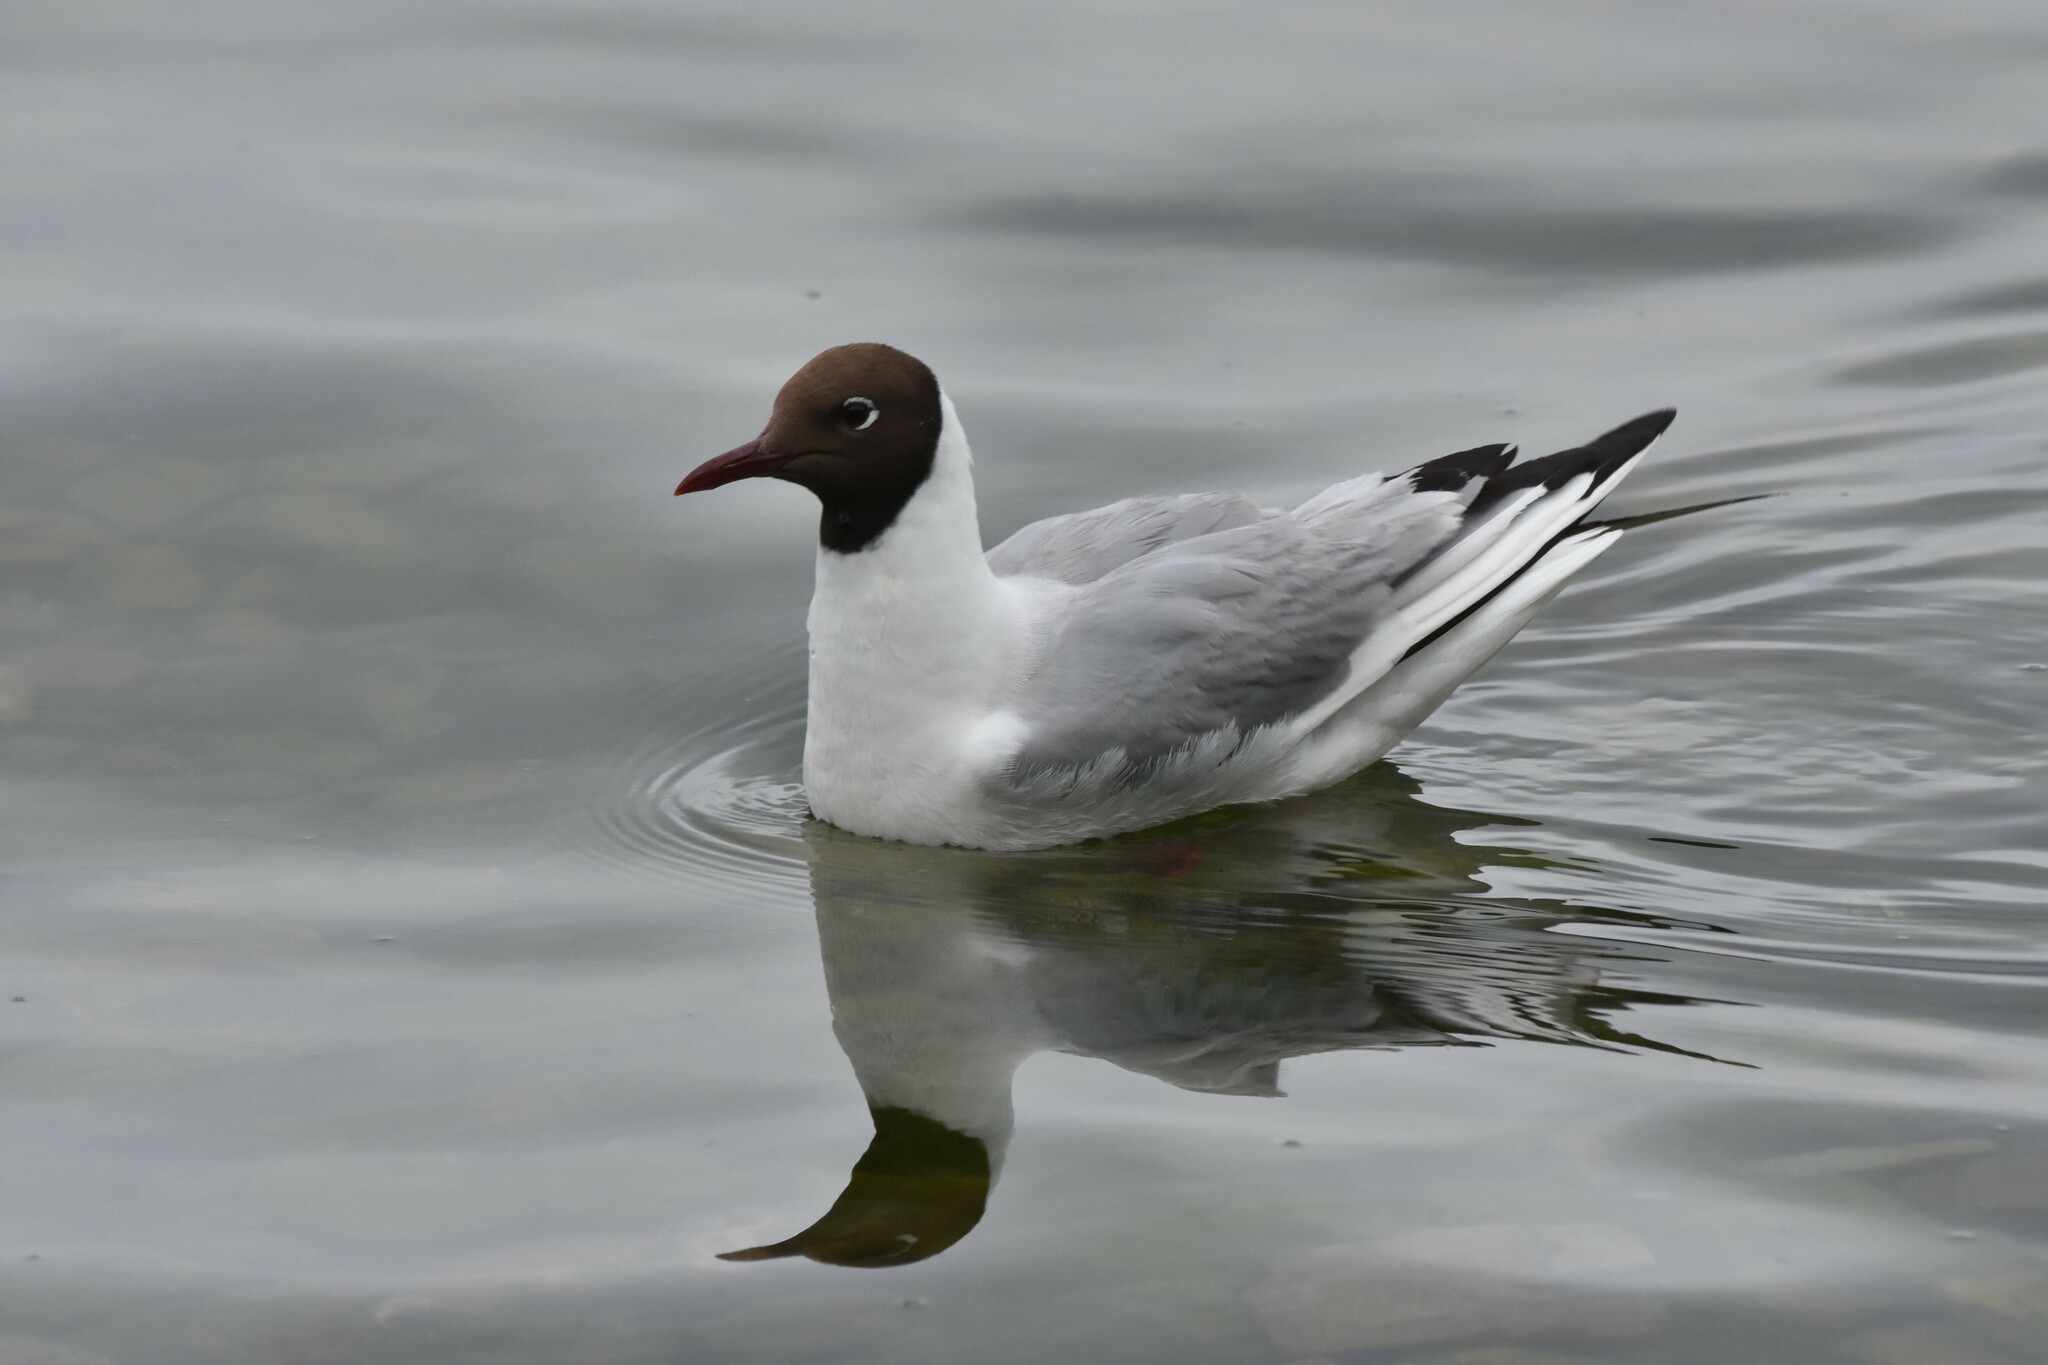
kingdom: Animalia
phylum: Chordata
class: Aves
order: Charadriiformes
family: Laridae
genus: Chroicocephalus
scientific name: Chroicocephalus ridibundus
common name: Black-headed gull
